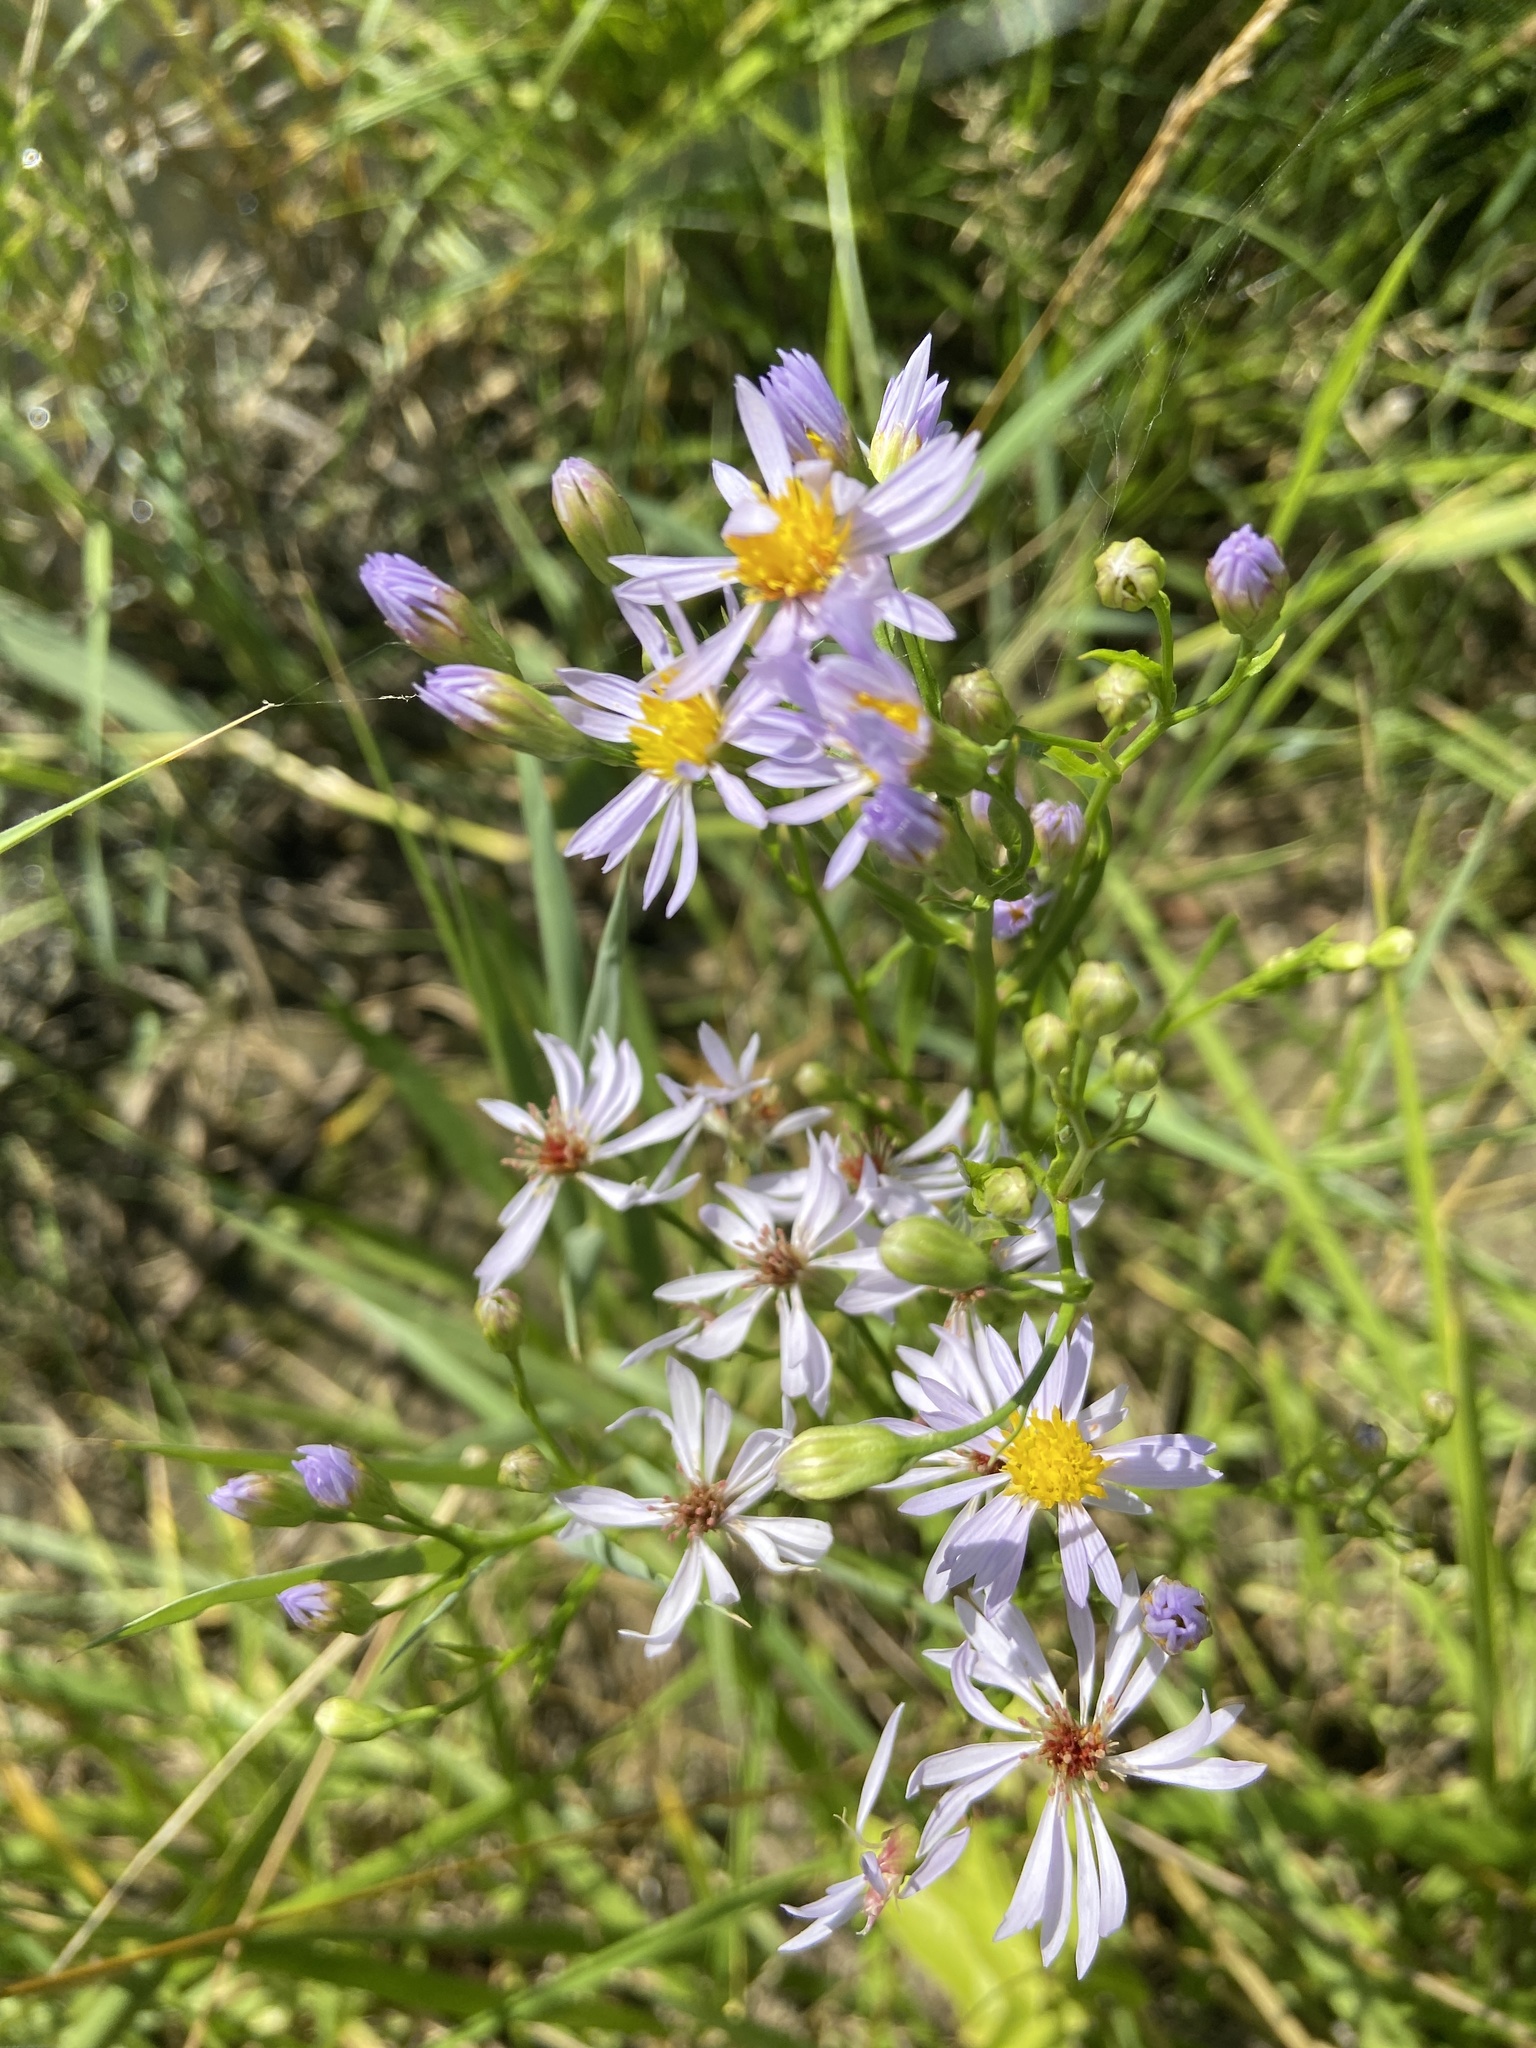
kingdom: Plantae
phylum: Tracheophyta
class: Magnoliopsida
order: Asterales
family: Asteraceae
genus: Tripolium
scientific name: Tripolium pannonicum
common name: Sea aster
